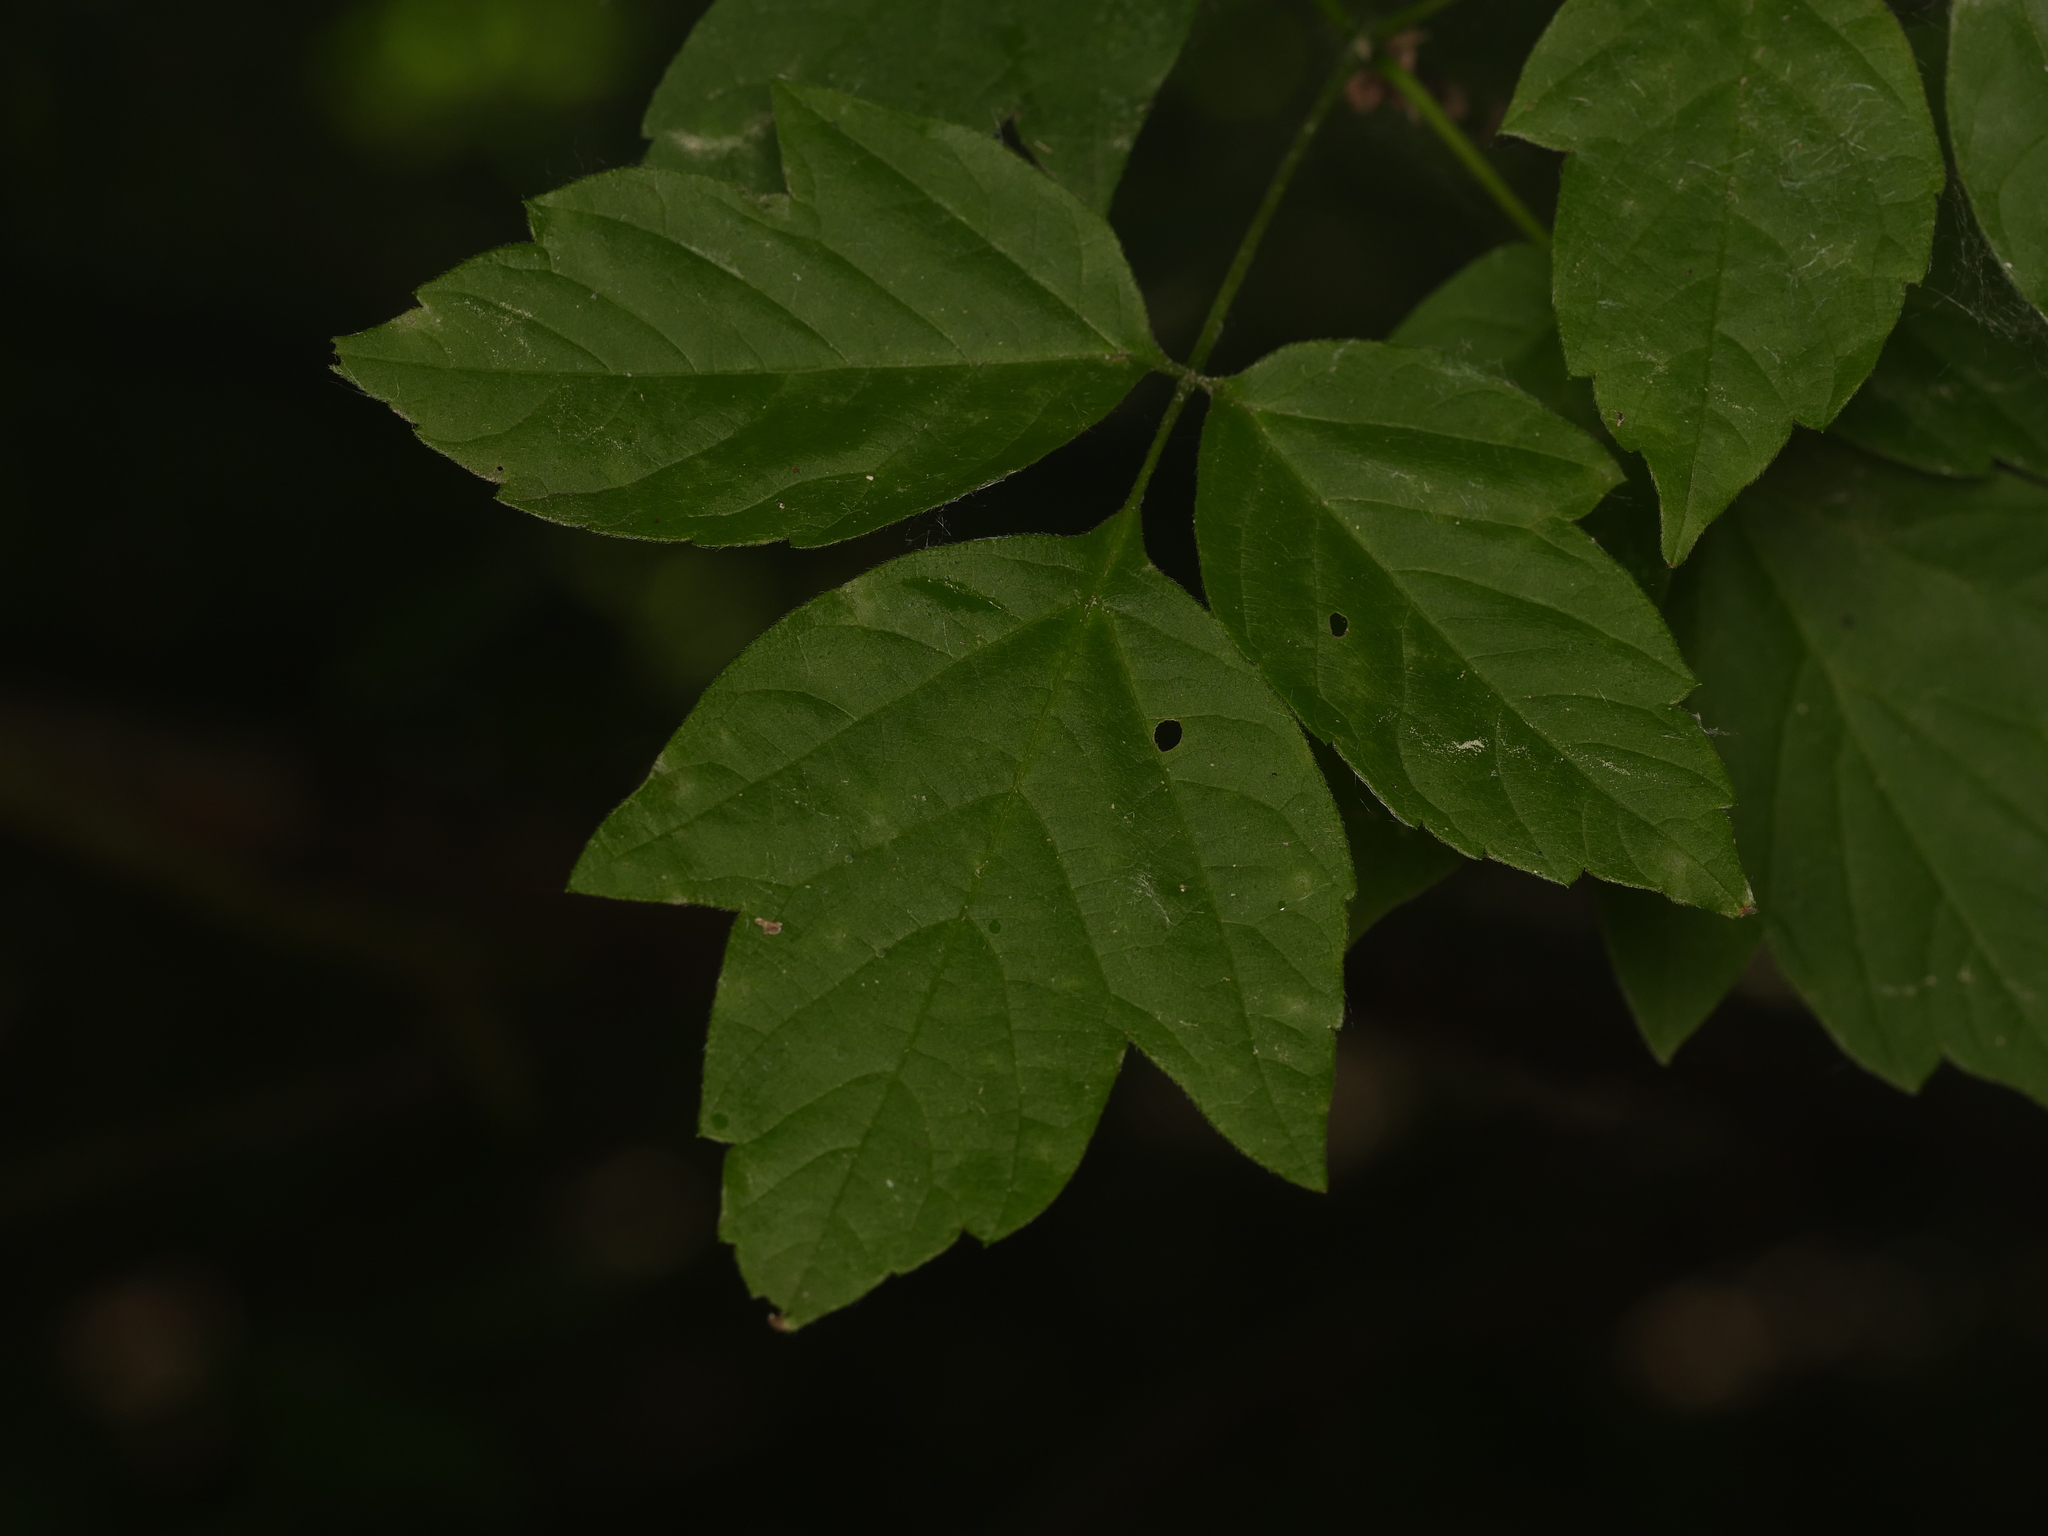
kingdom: Plantae
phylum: Tracheophyta
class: Magnoliopsida
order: Sapindales
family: Sapindaceae
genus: Acer
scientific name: Acer negundo
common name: Ashleaf maple
